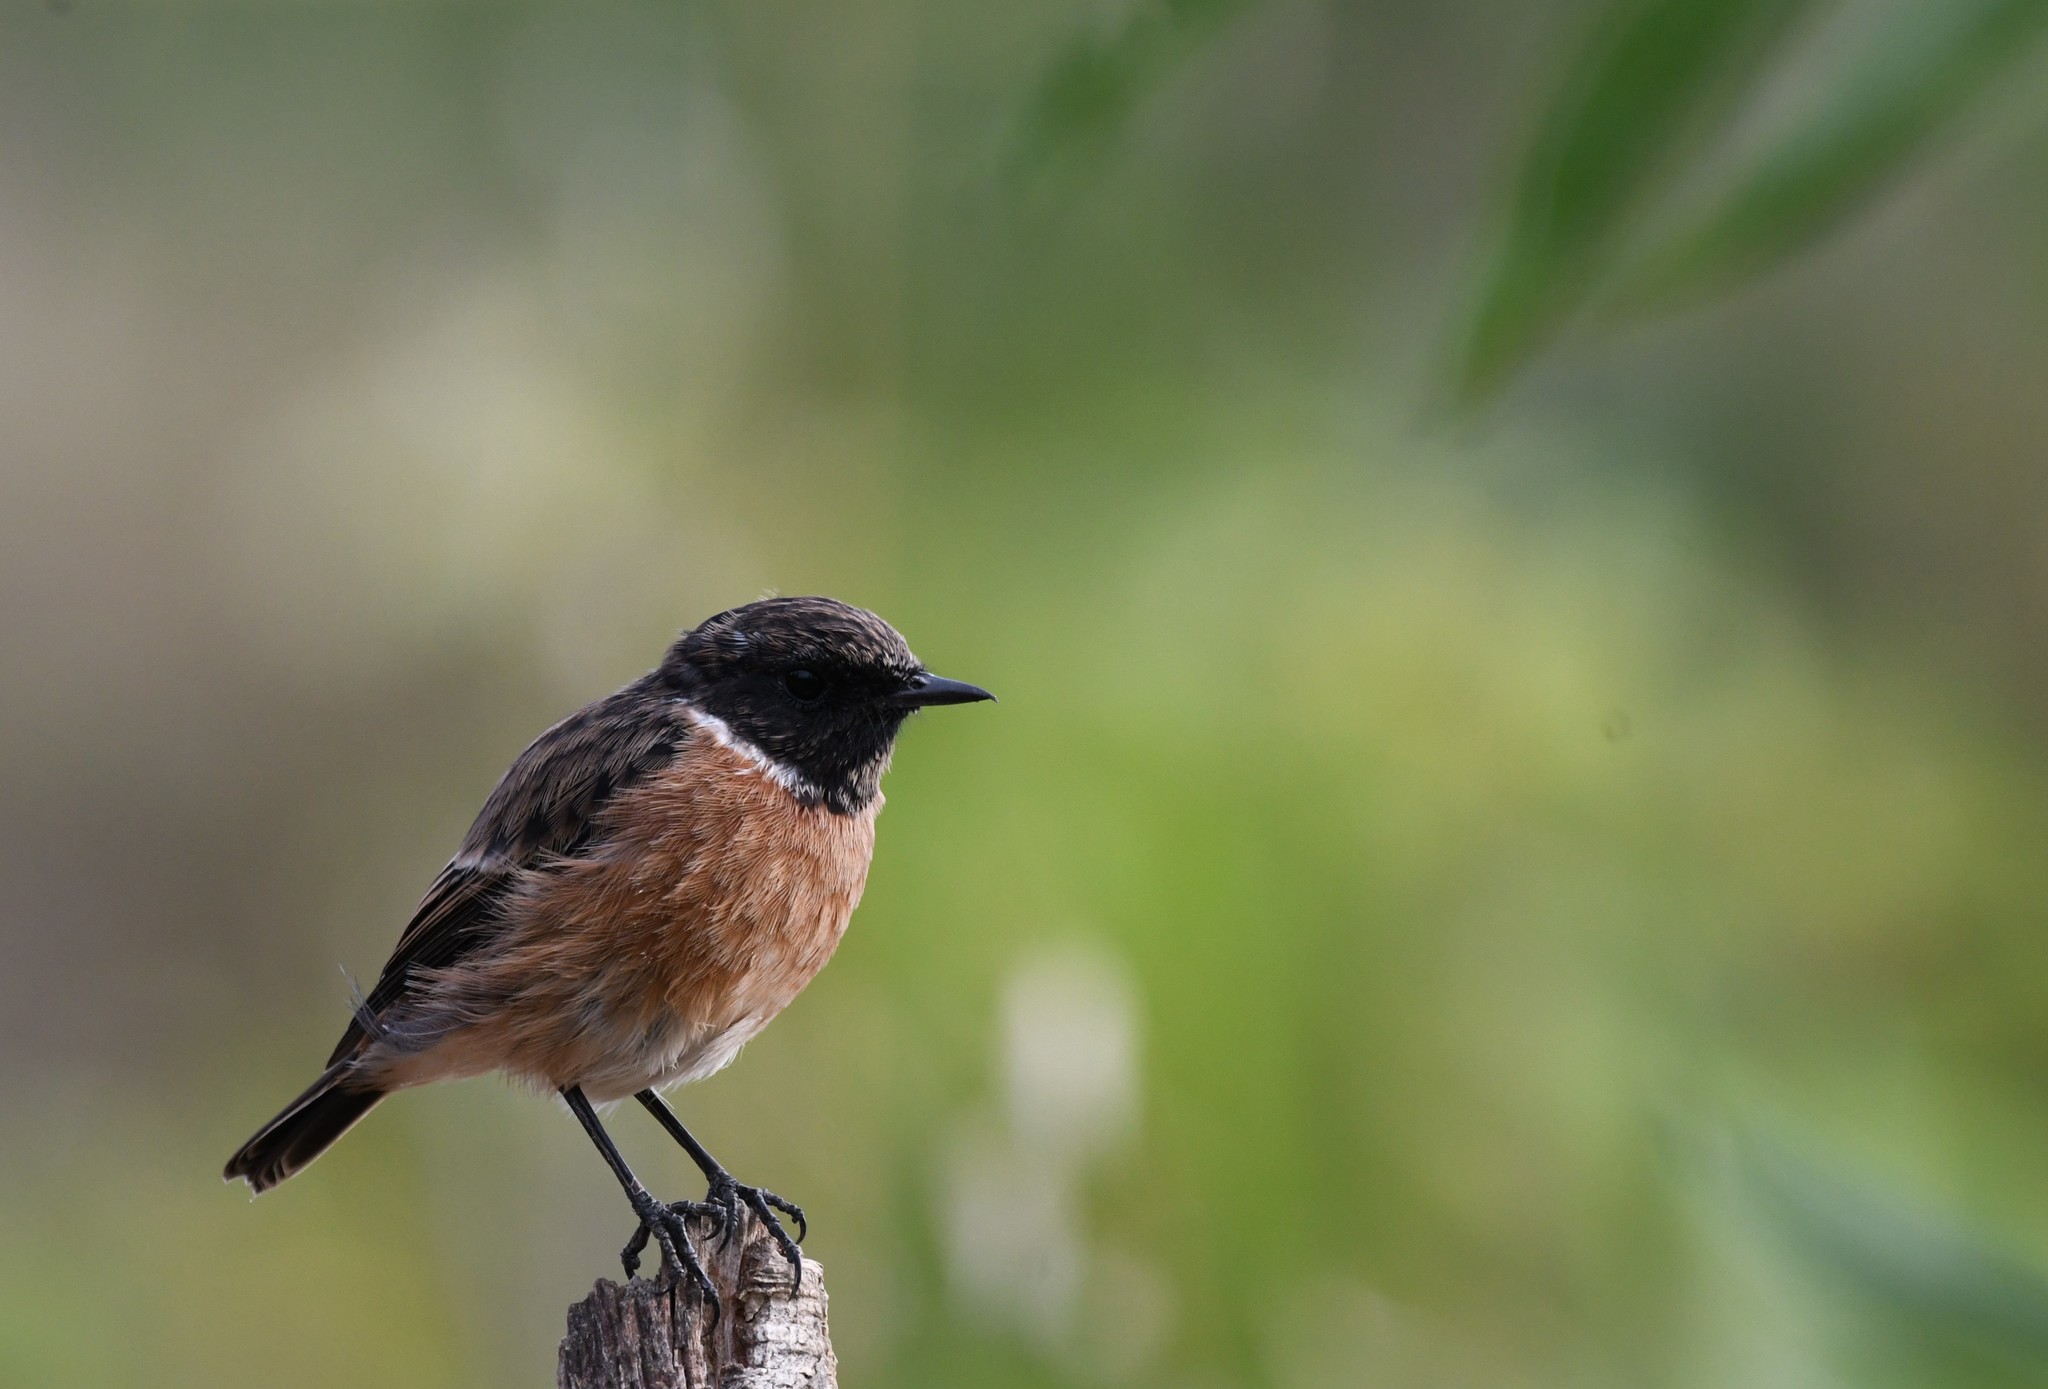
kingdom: Animalia
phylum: Chordata
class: Aves
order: Passeriformes
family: Muscicapidae
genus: Saxicola
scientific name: Saxicola rubicola
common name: European stonechat
